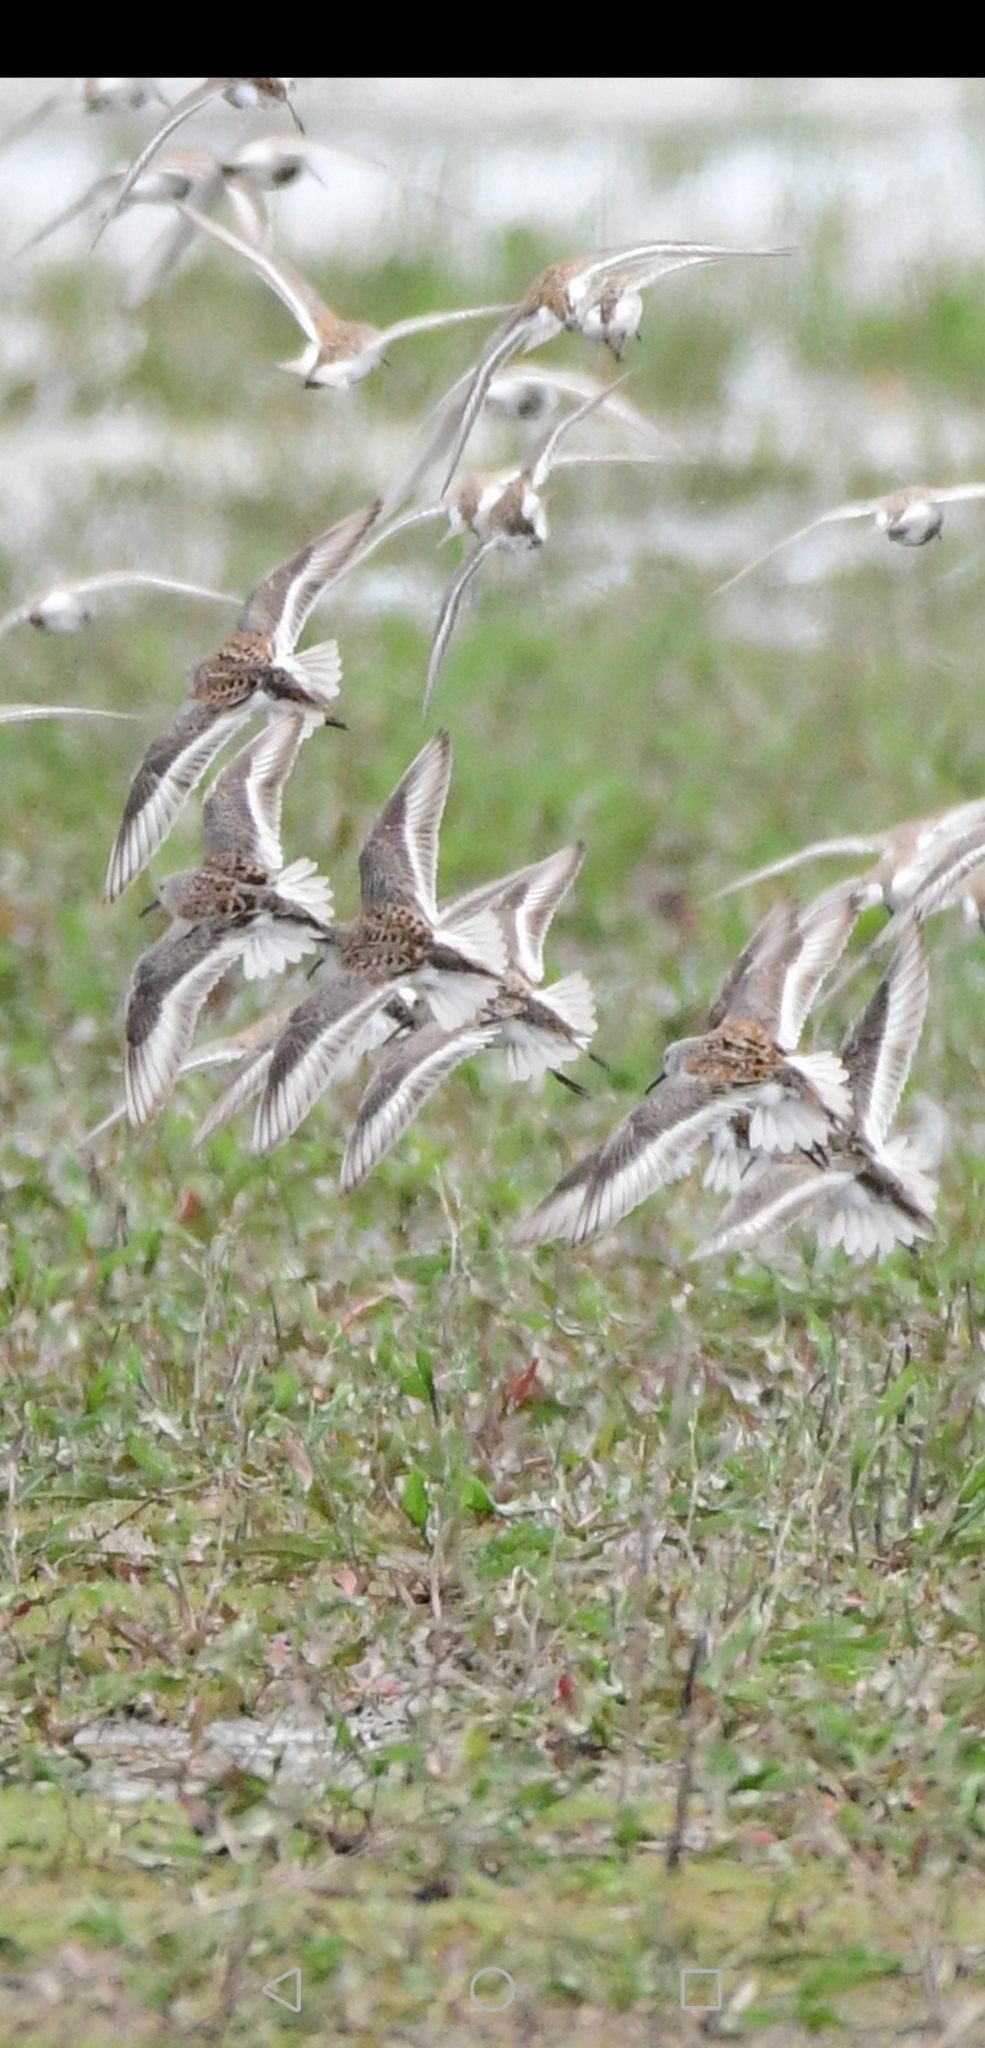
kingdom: Animalia
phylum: Chordata
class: Aves
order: Charadriiformes
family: Scolopacidae
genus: Calidris
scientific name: Calidris alpina
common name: Dunlin
